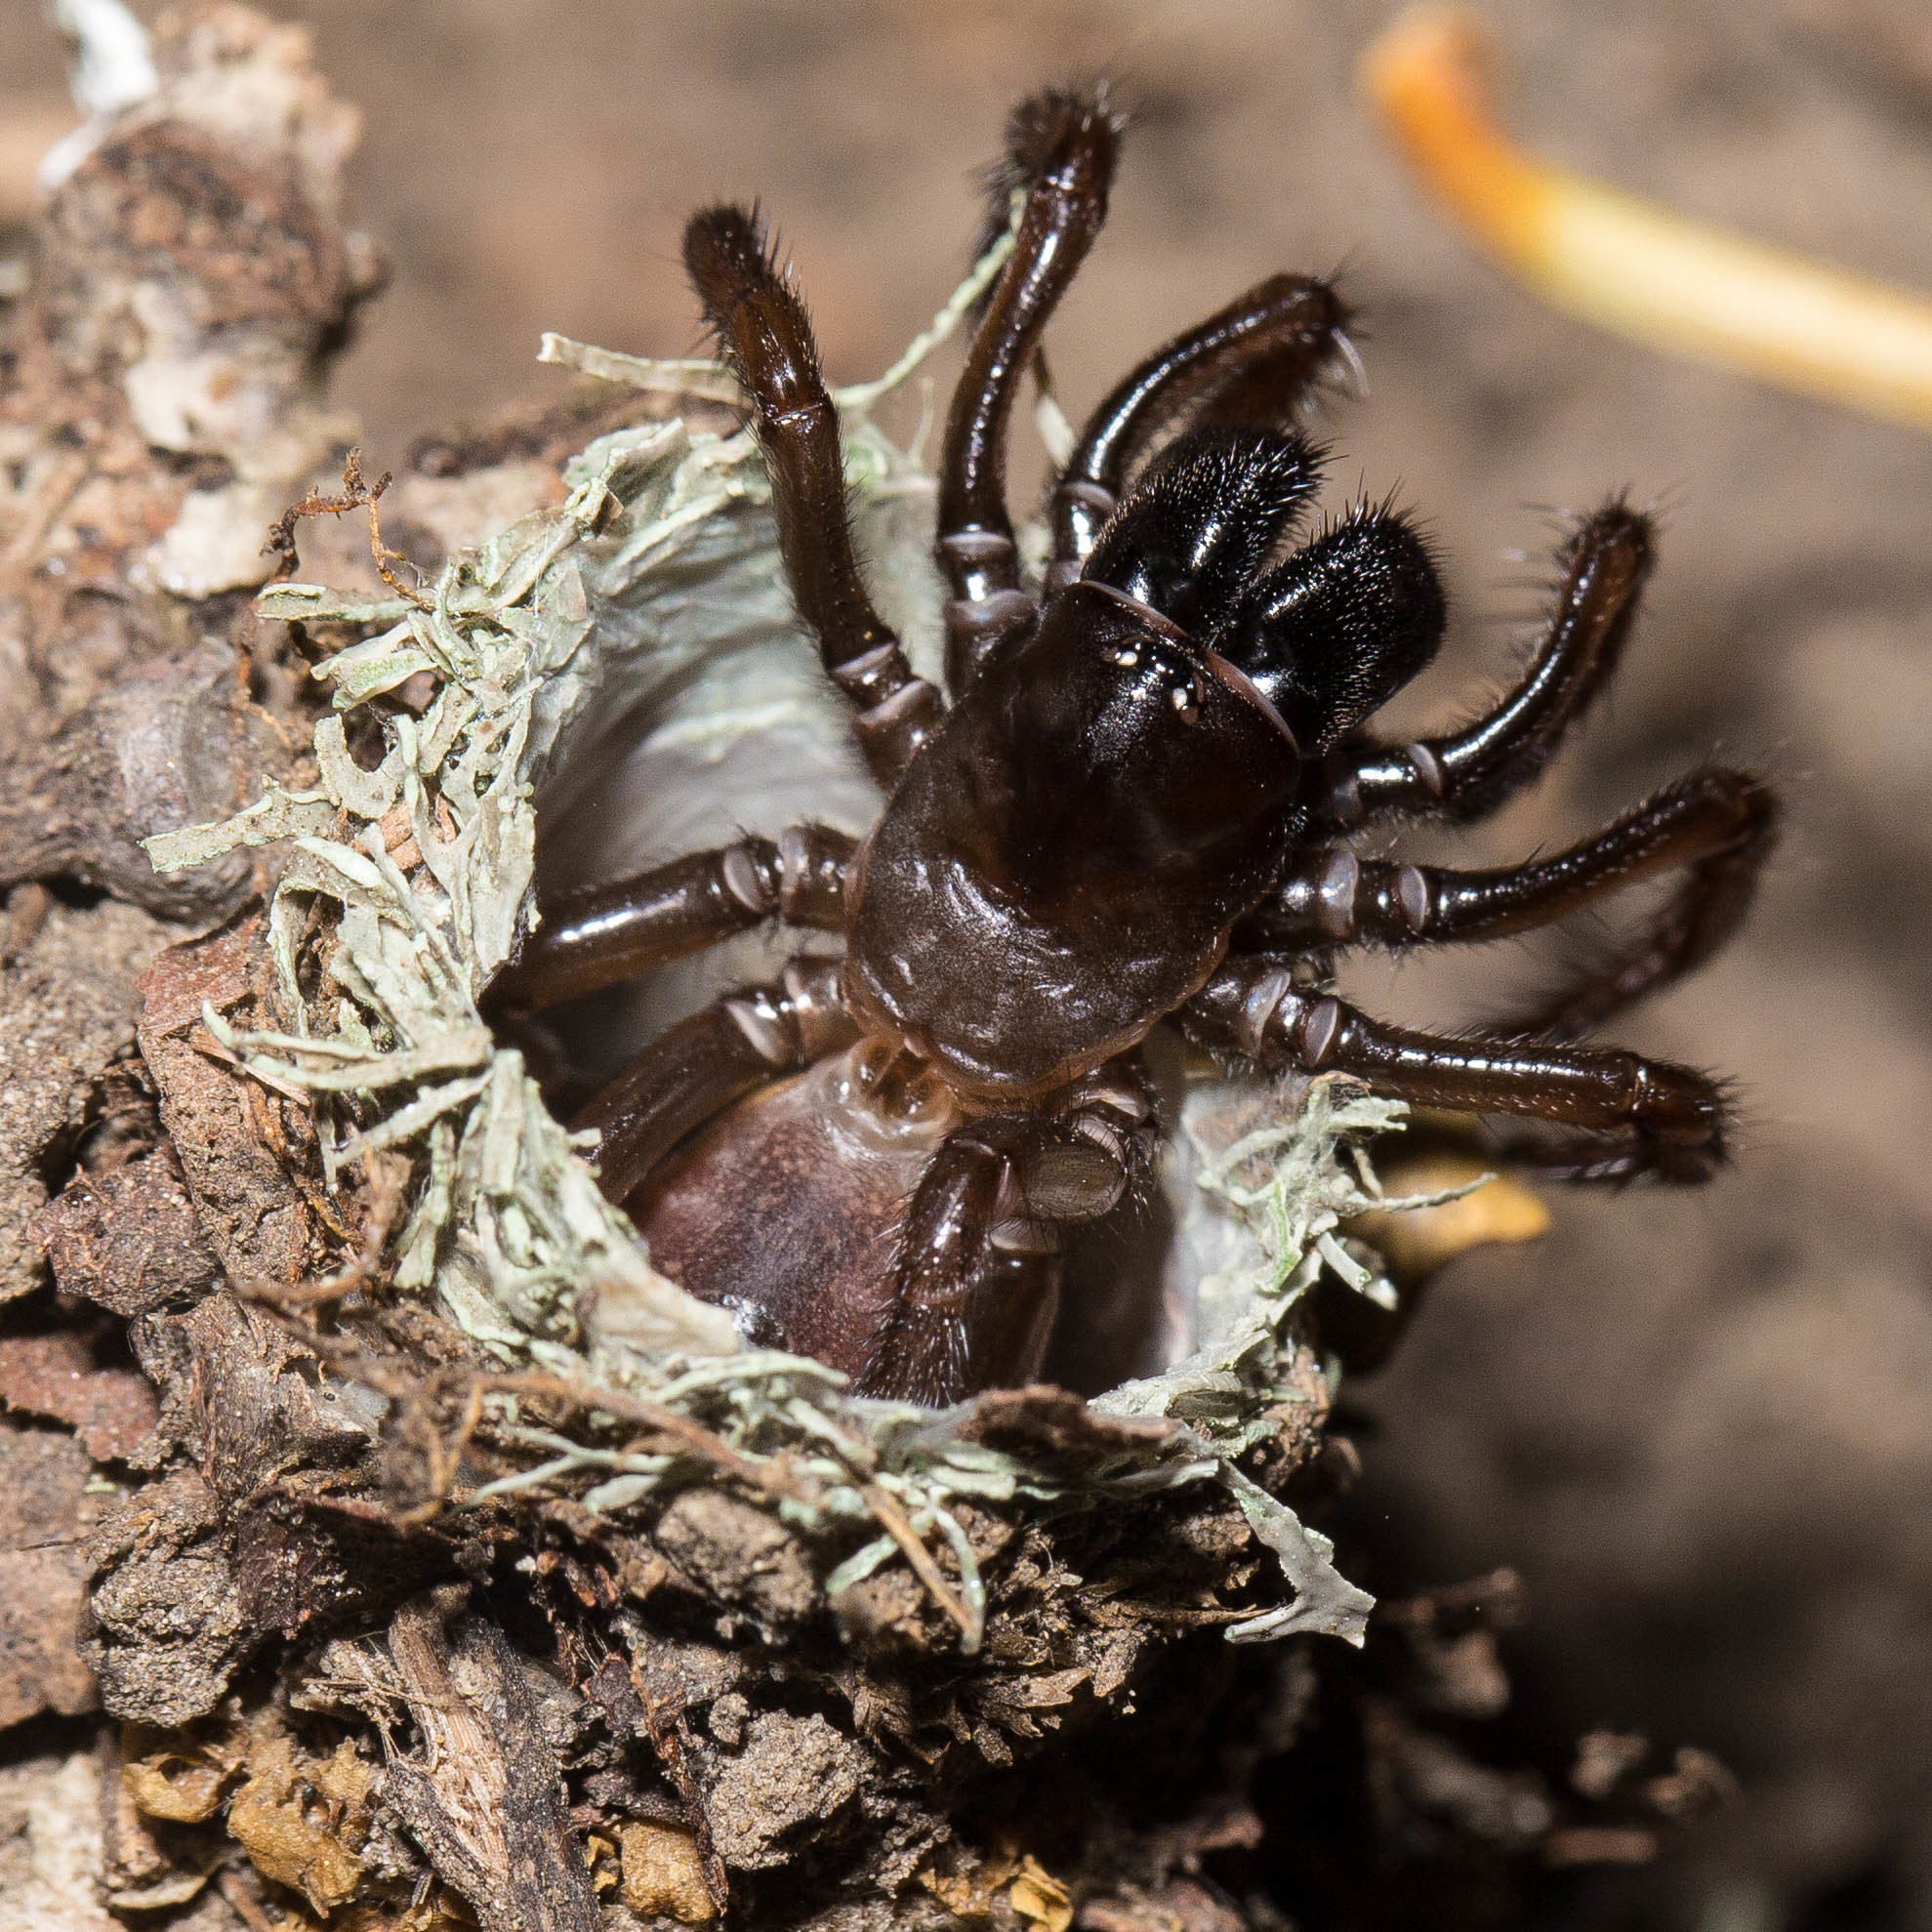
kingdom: Animalia
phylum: Arthropoda
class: Arachnida
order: Araneae
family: Antrodiaetidae
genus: Atypoides
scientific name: Atypoides riversi
